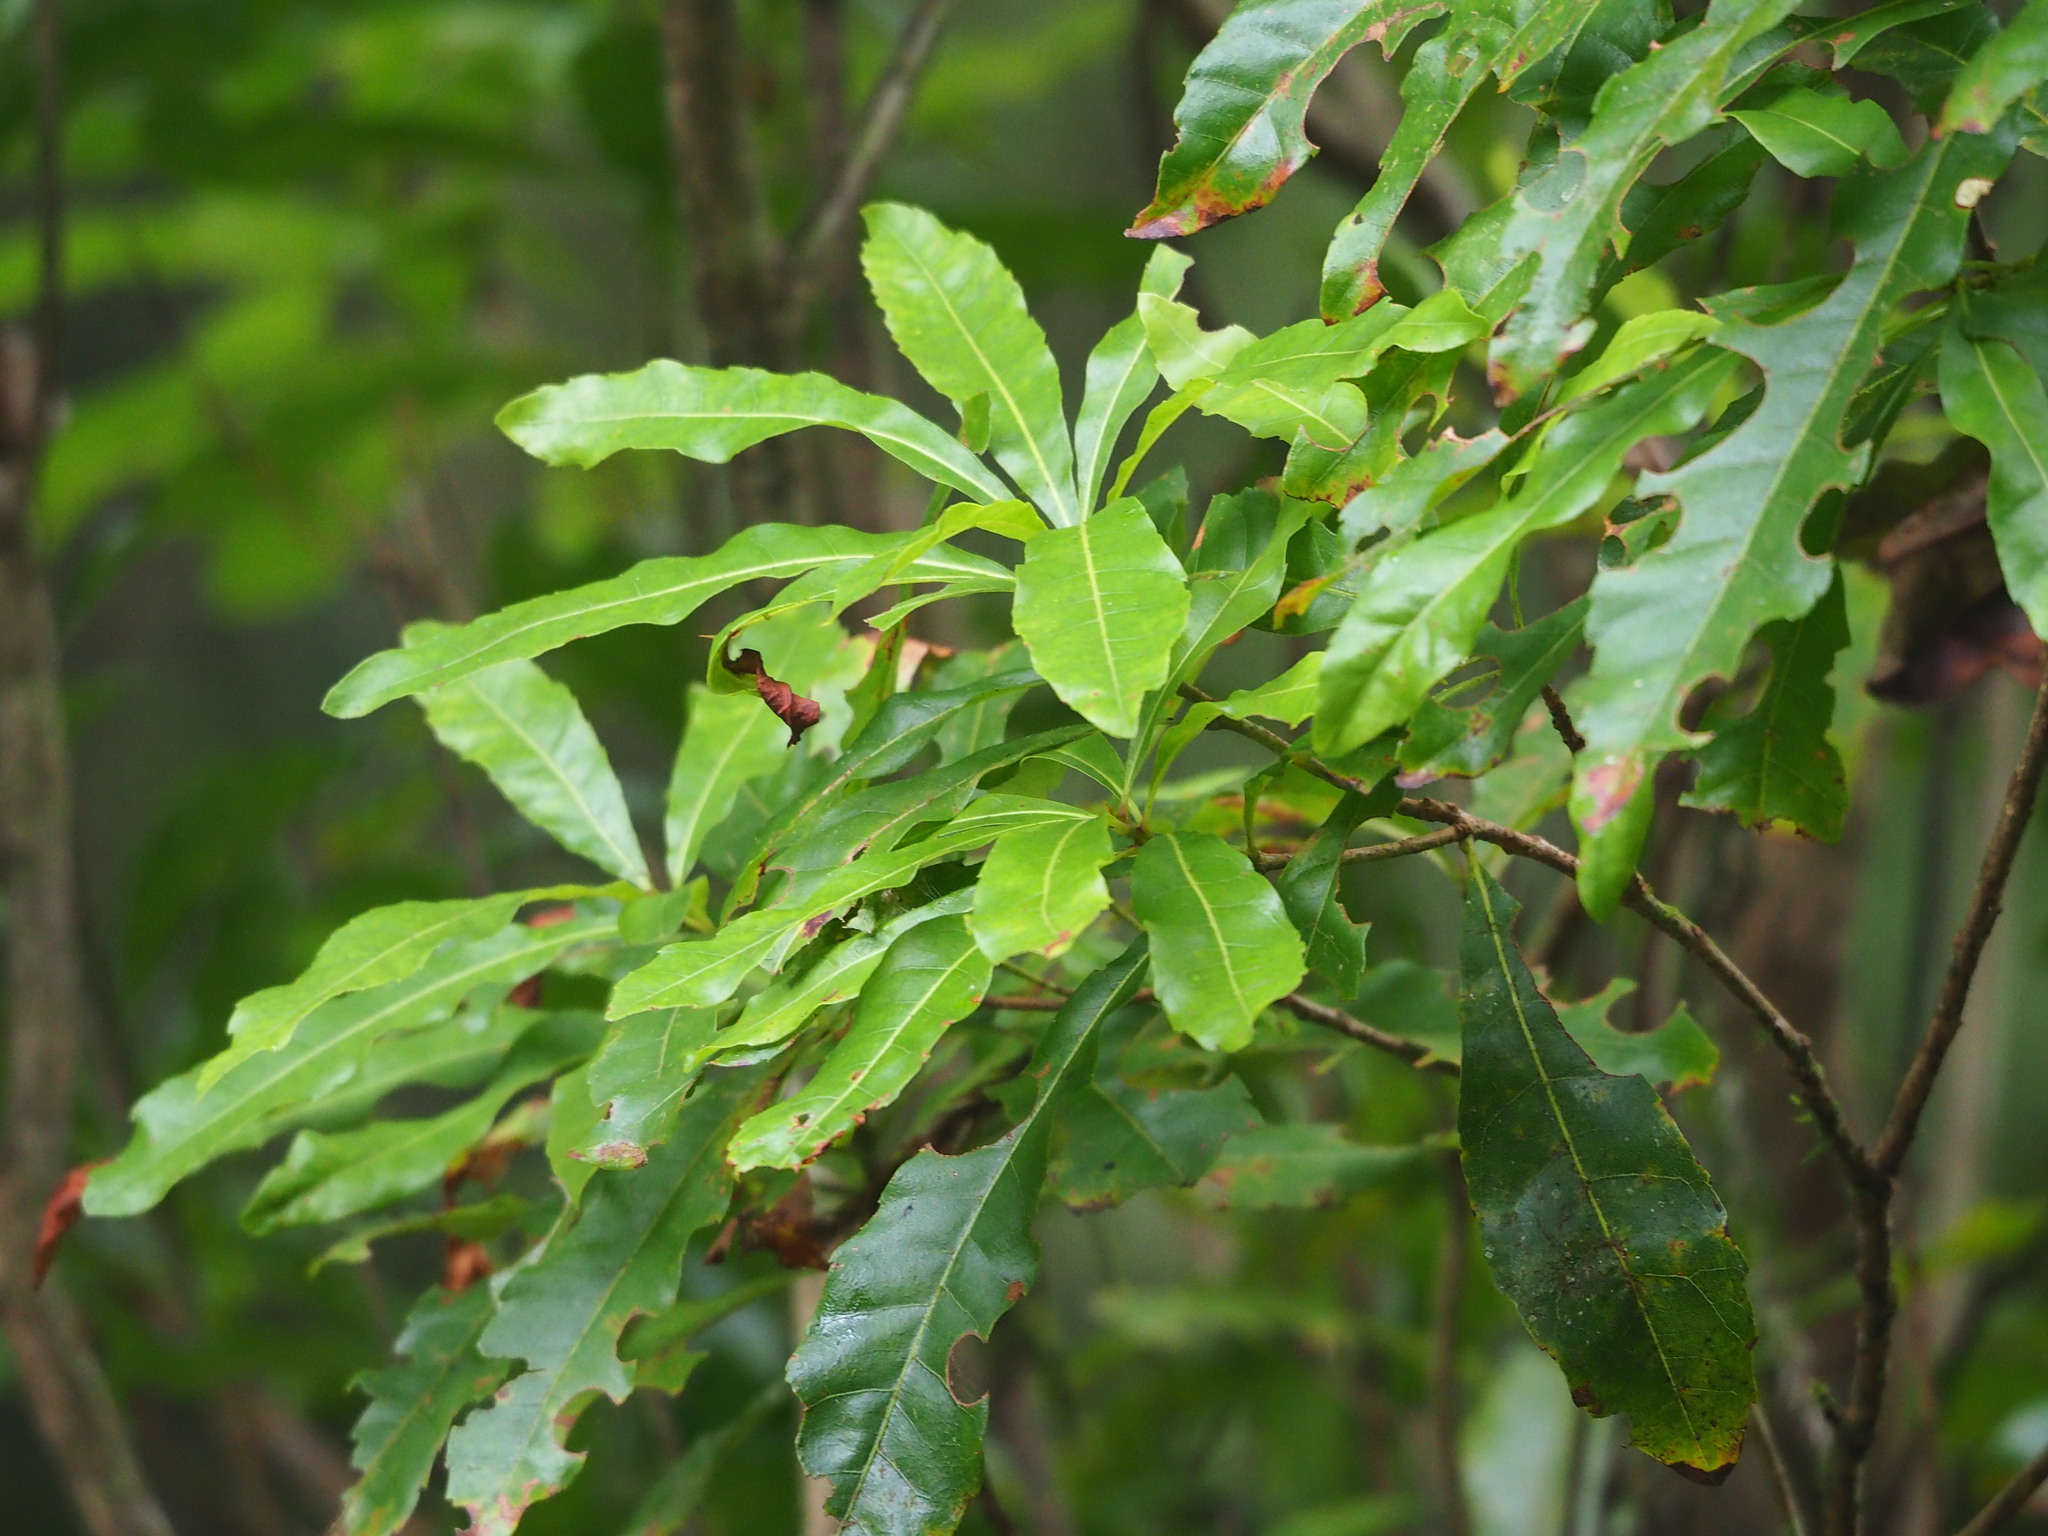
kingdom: Plantae
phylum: Tracheophyta
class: Magnoliopsida
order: Fagales
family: Myricaceae
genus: Morella
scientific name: Morella rubra
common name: Red bayberry
